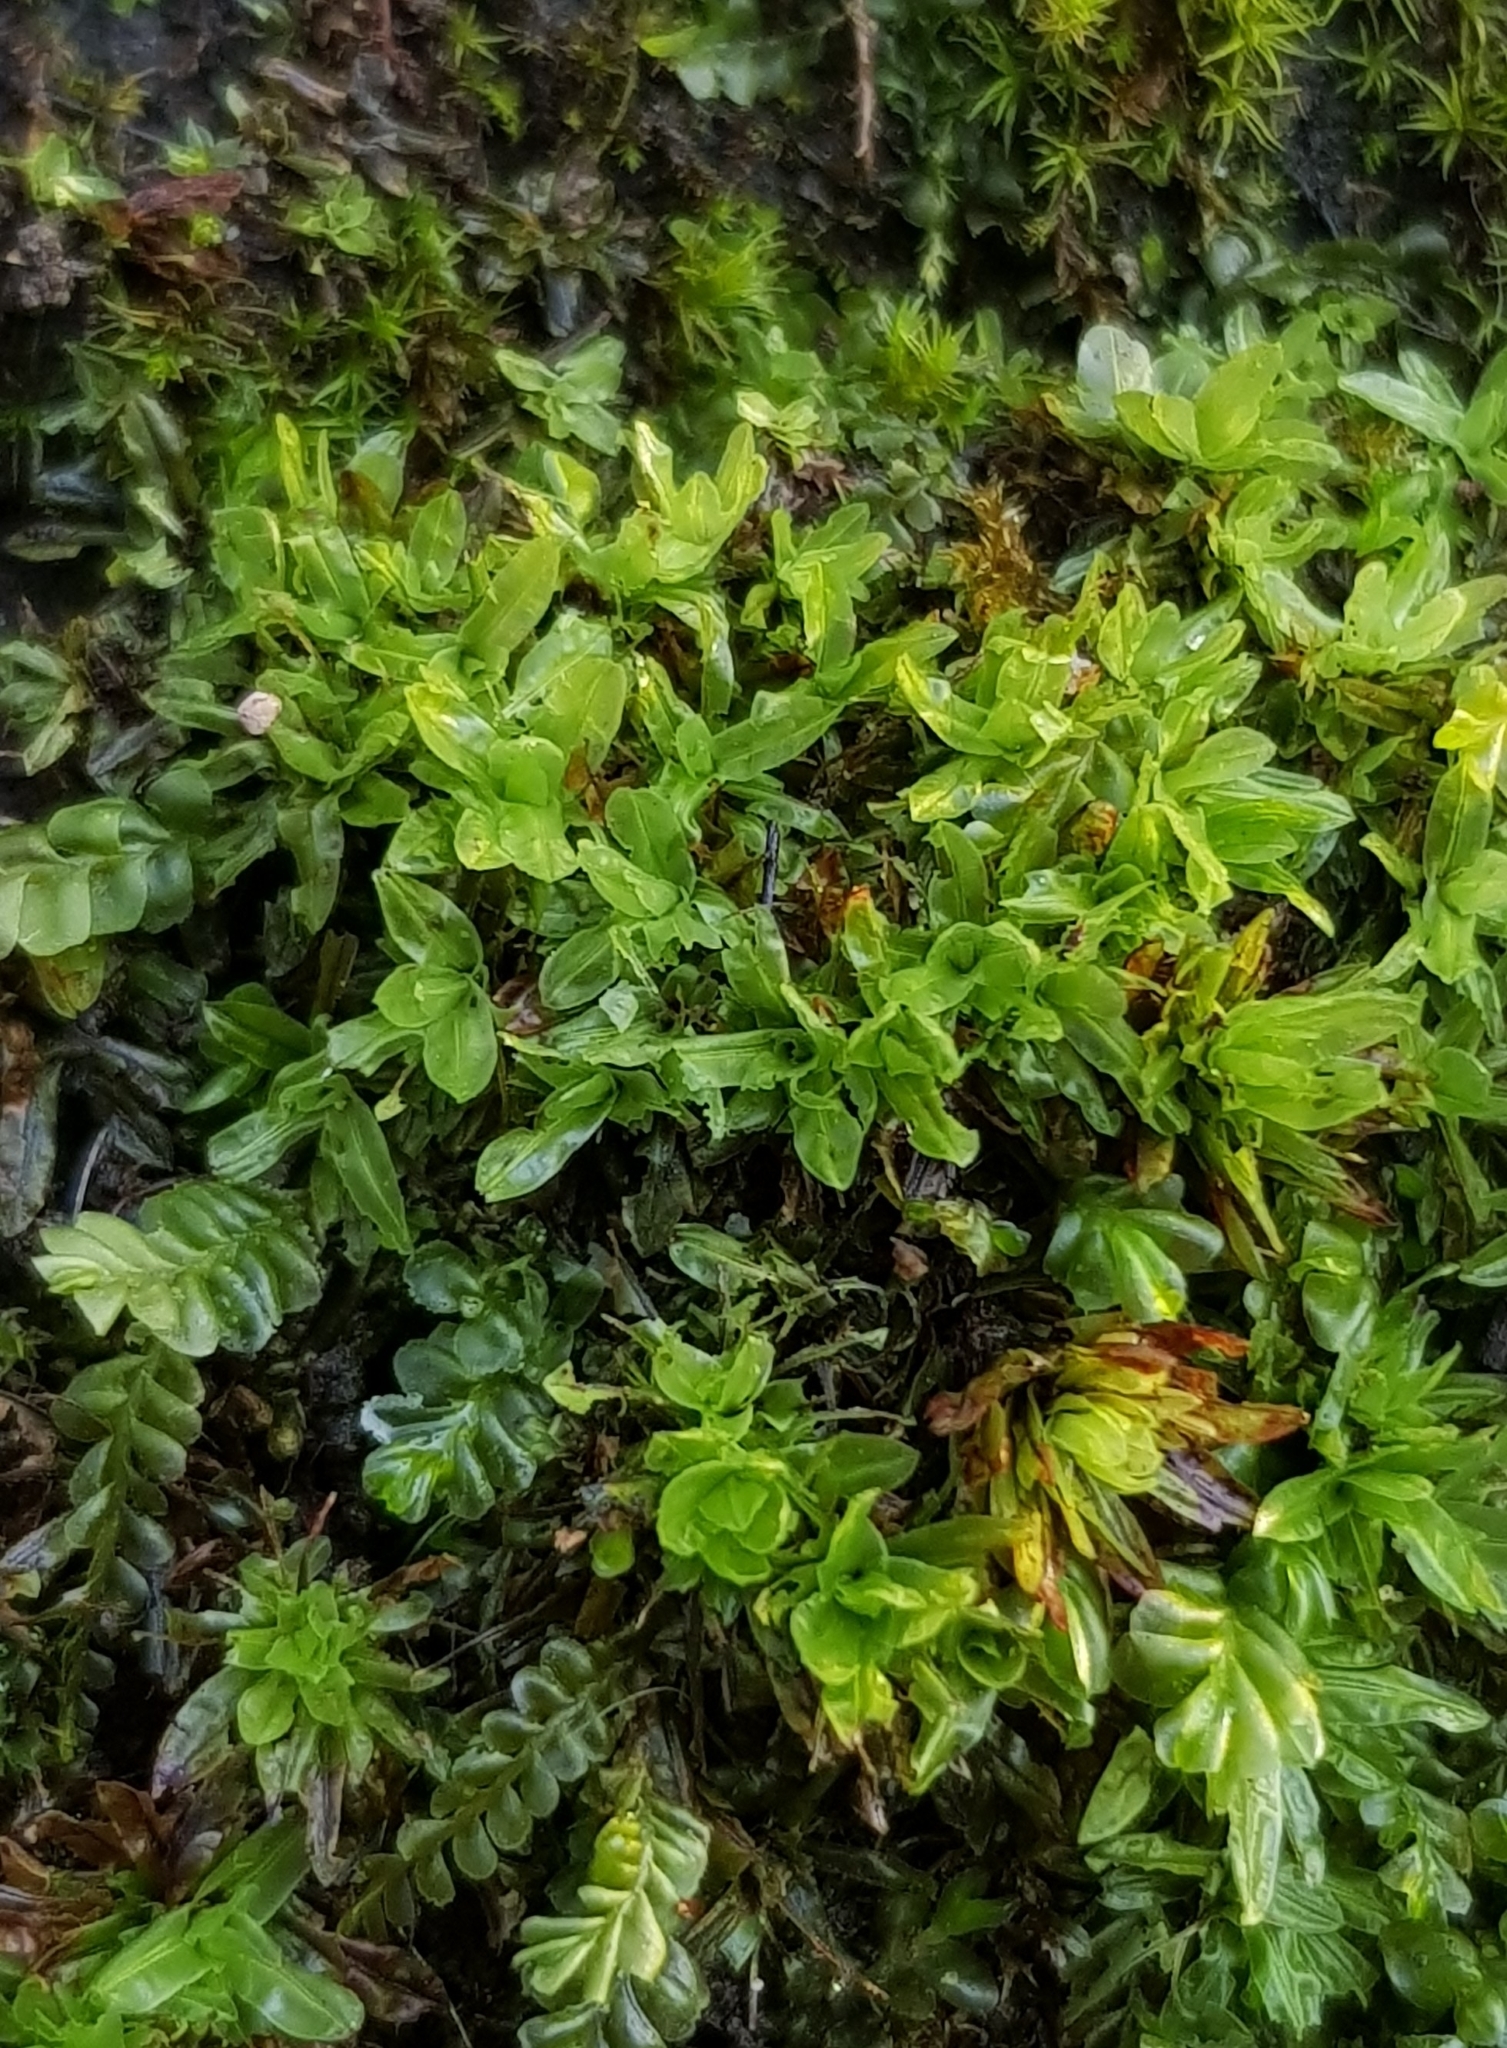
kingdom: Plantae
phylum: Bryophyta
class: Bryopsida
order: Encalyptales
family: Encalyptaceae
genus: Encalypta
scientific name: Encalypta streptocarpa
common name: Spiral extinguisher-moss
